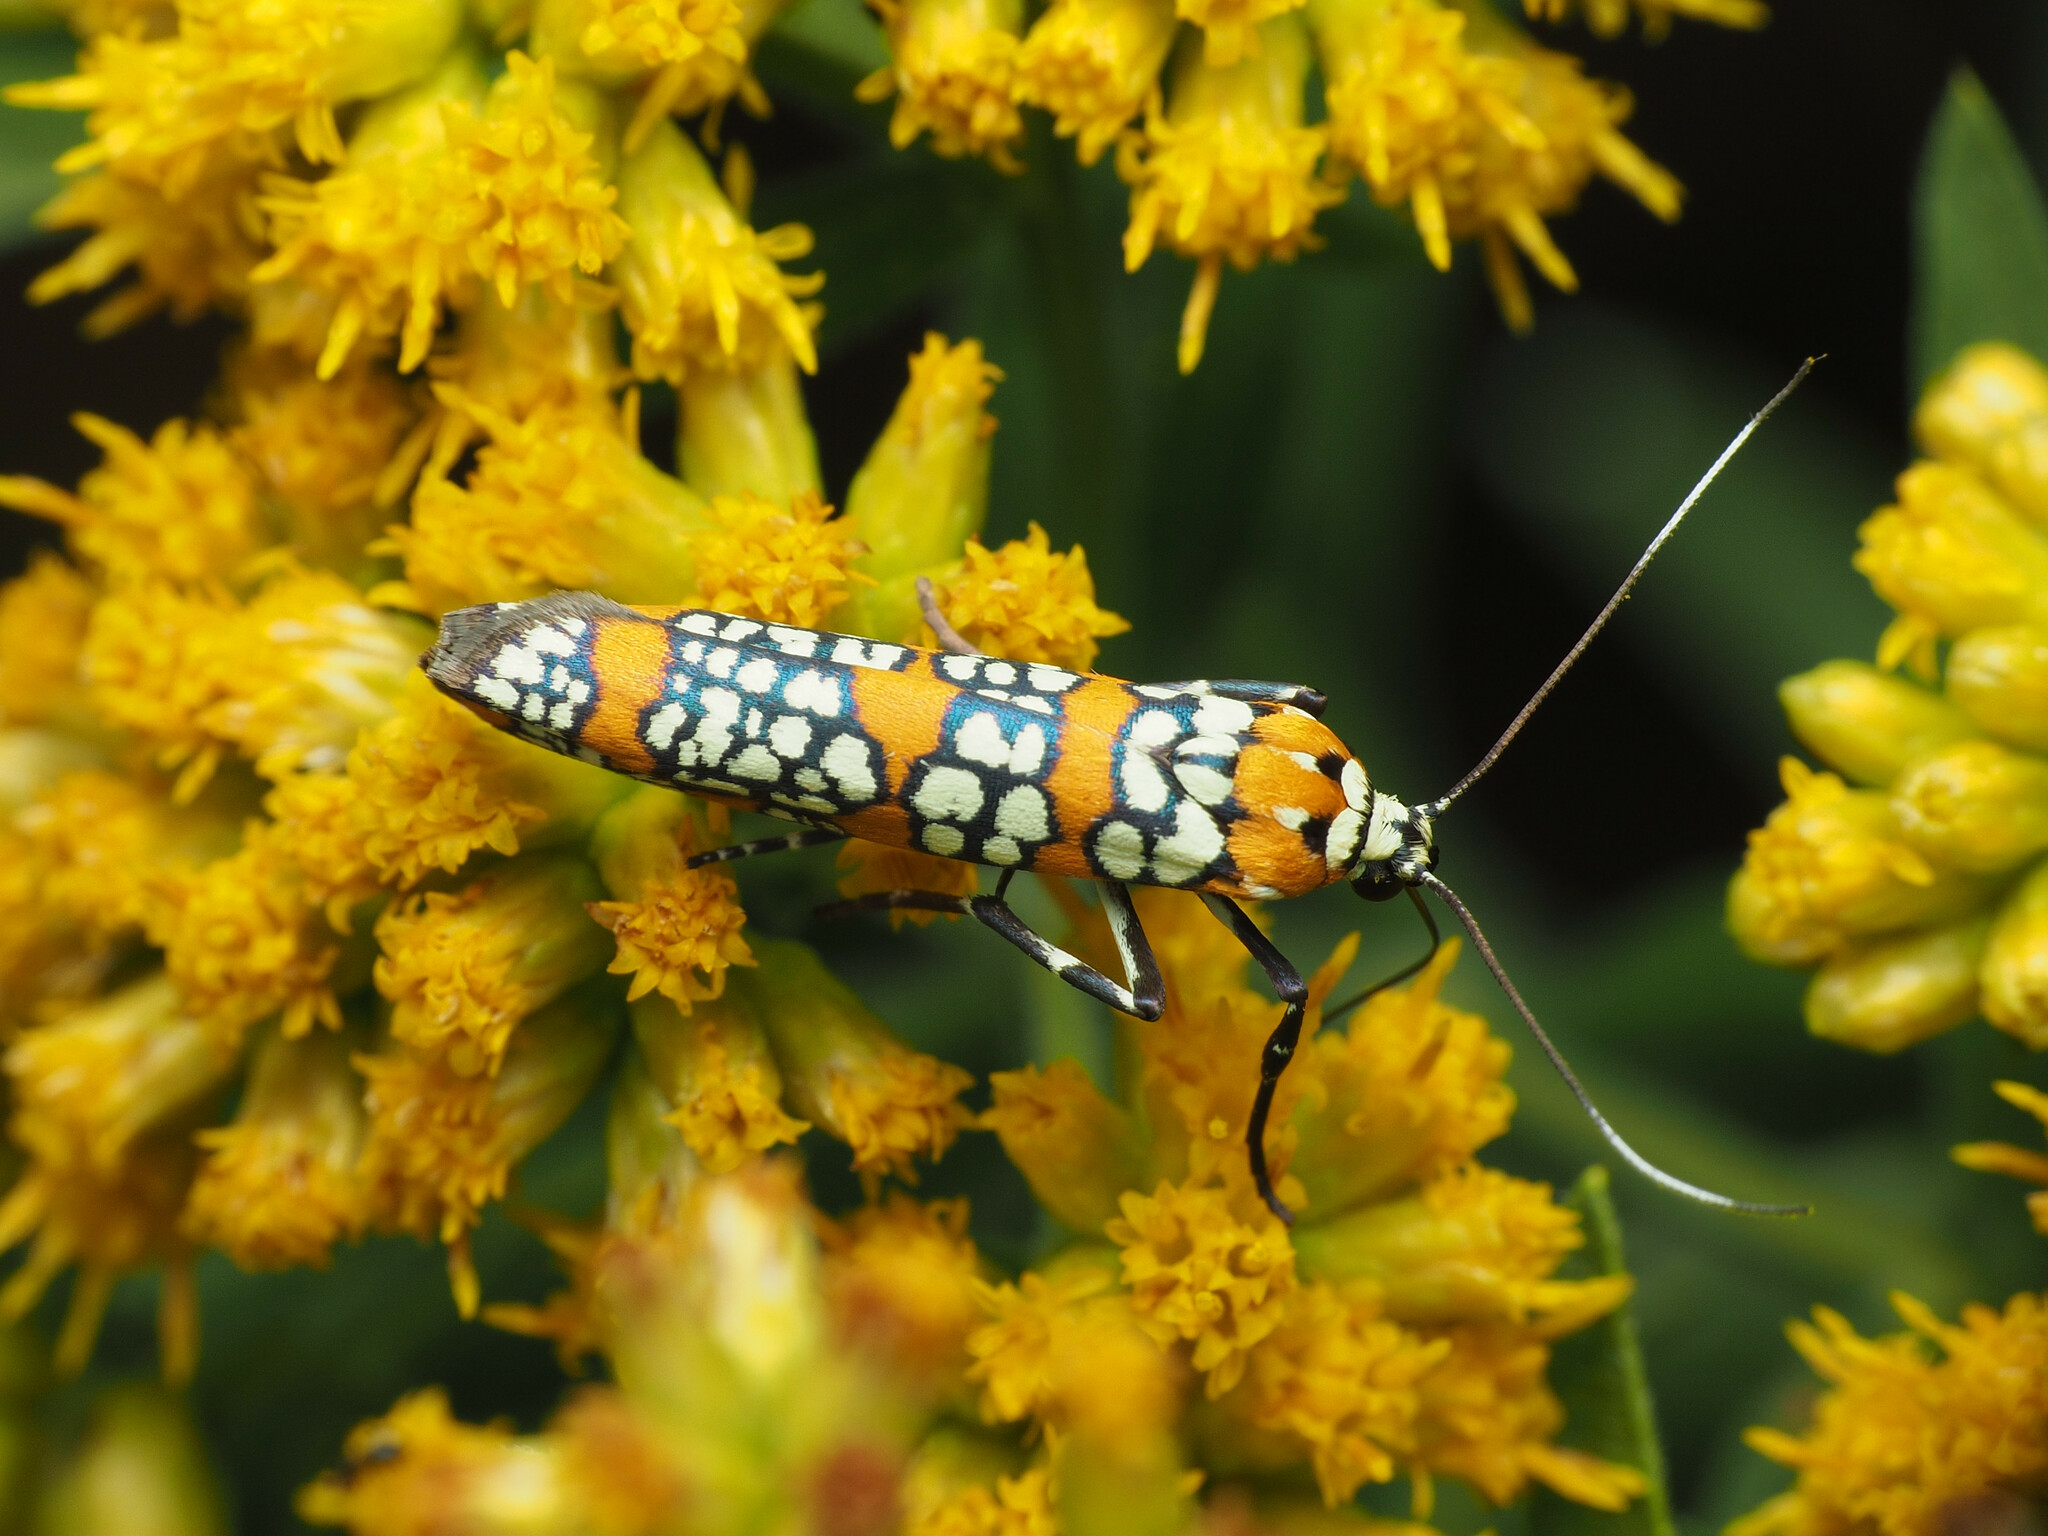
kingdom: Animalia
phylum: Arthropoda
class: Insecta
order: Lepidoptera
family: Attevidae
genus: Atteva
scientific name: Atteva punctella
